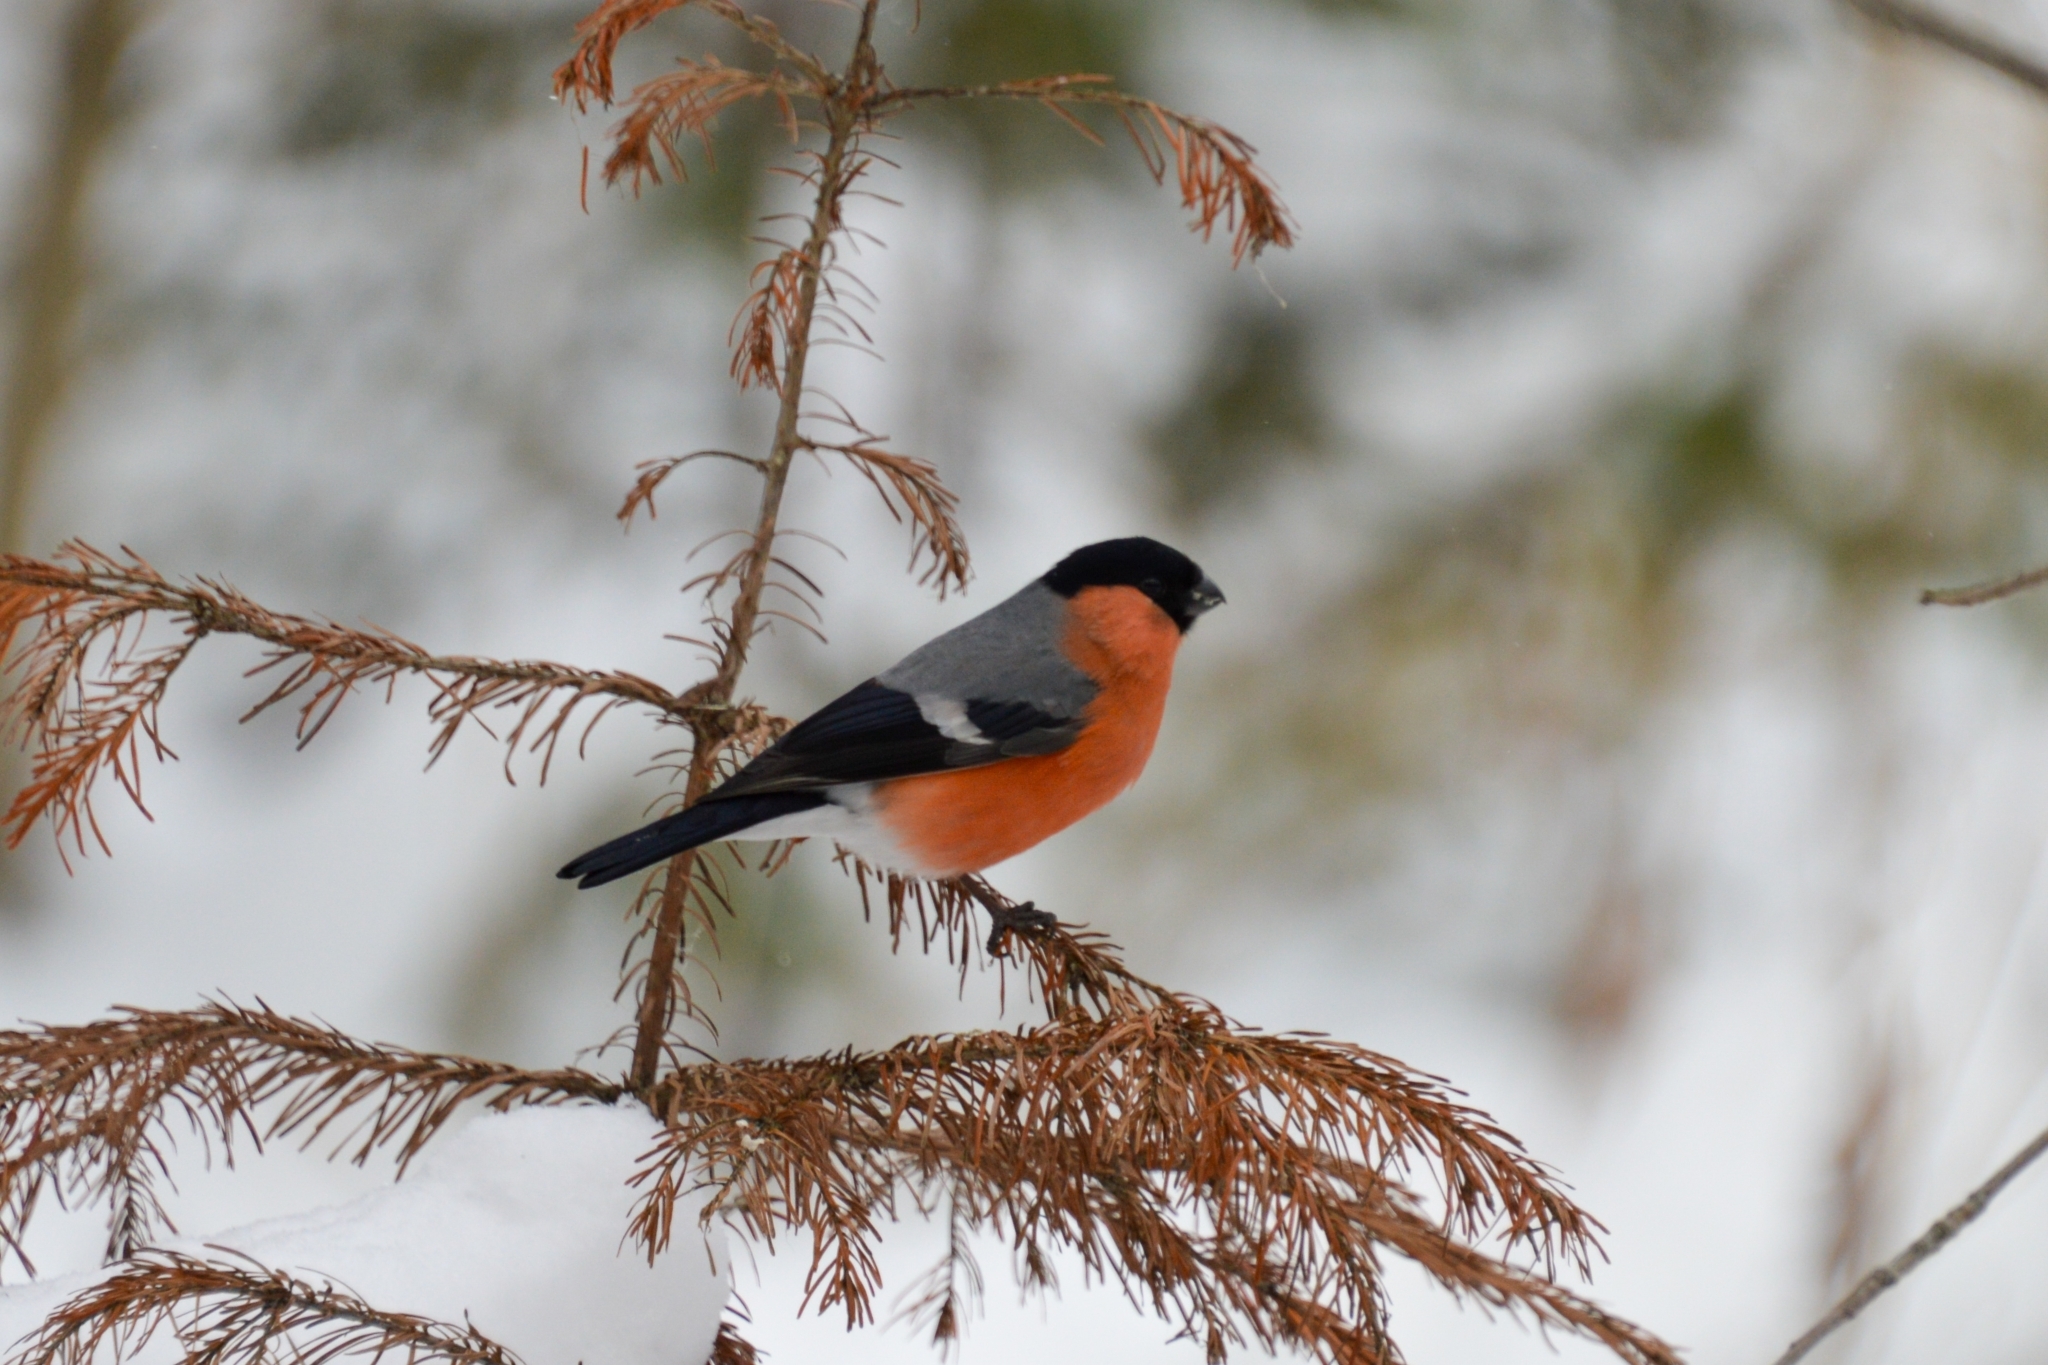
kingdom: Animalia
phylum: Chordata
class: Aves
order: Passeriformes
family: Fringillidae
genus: Pyrrhula
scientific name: Pyrrhula pyrrhula
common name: Eurasian bullfinch
